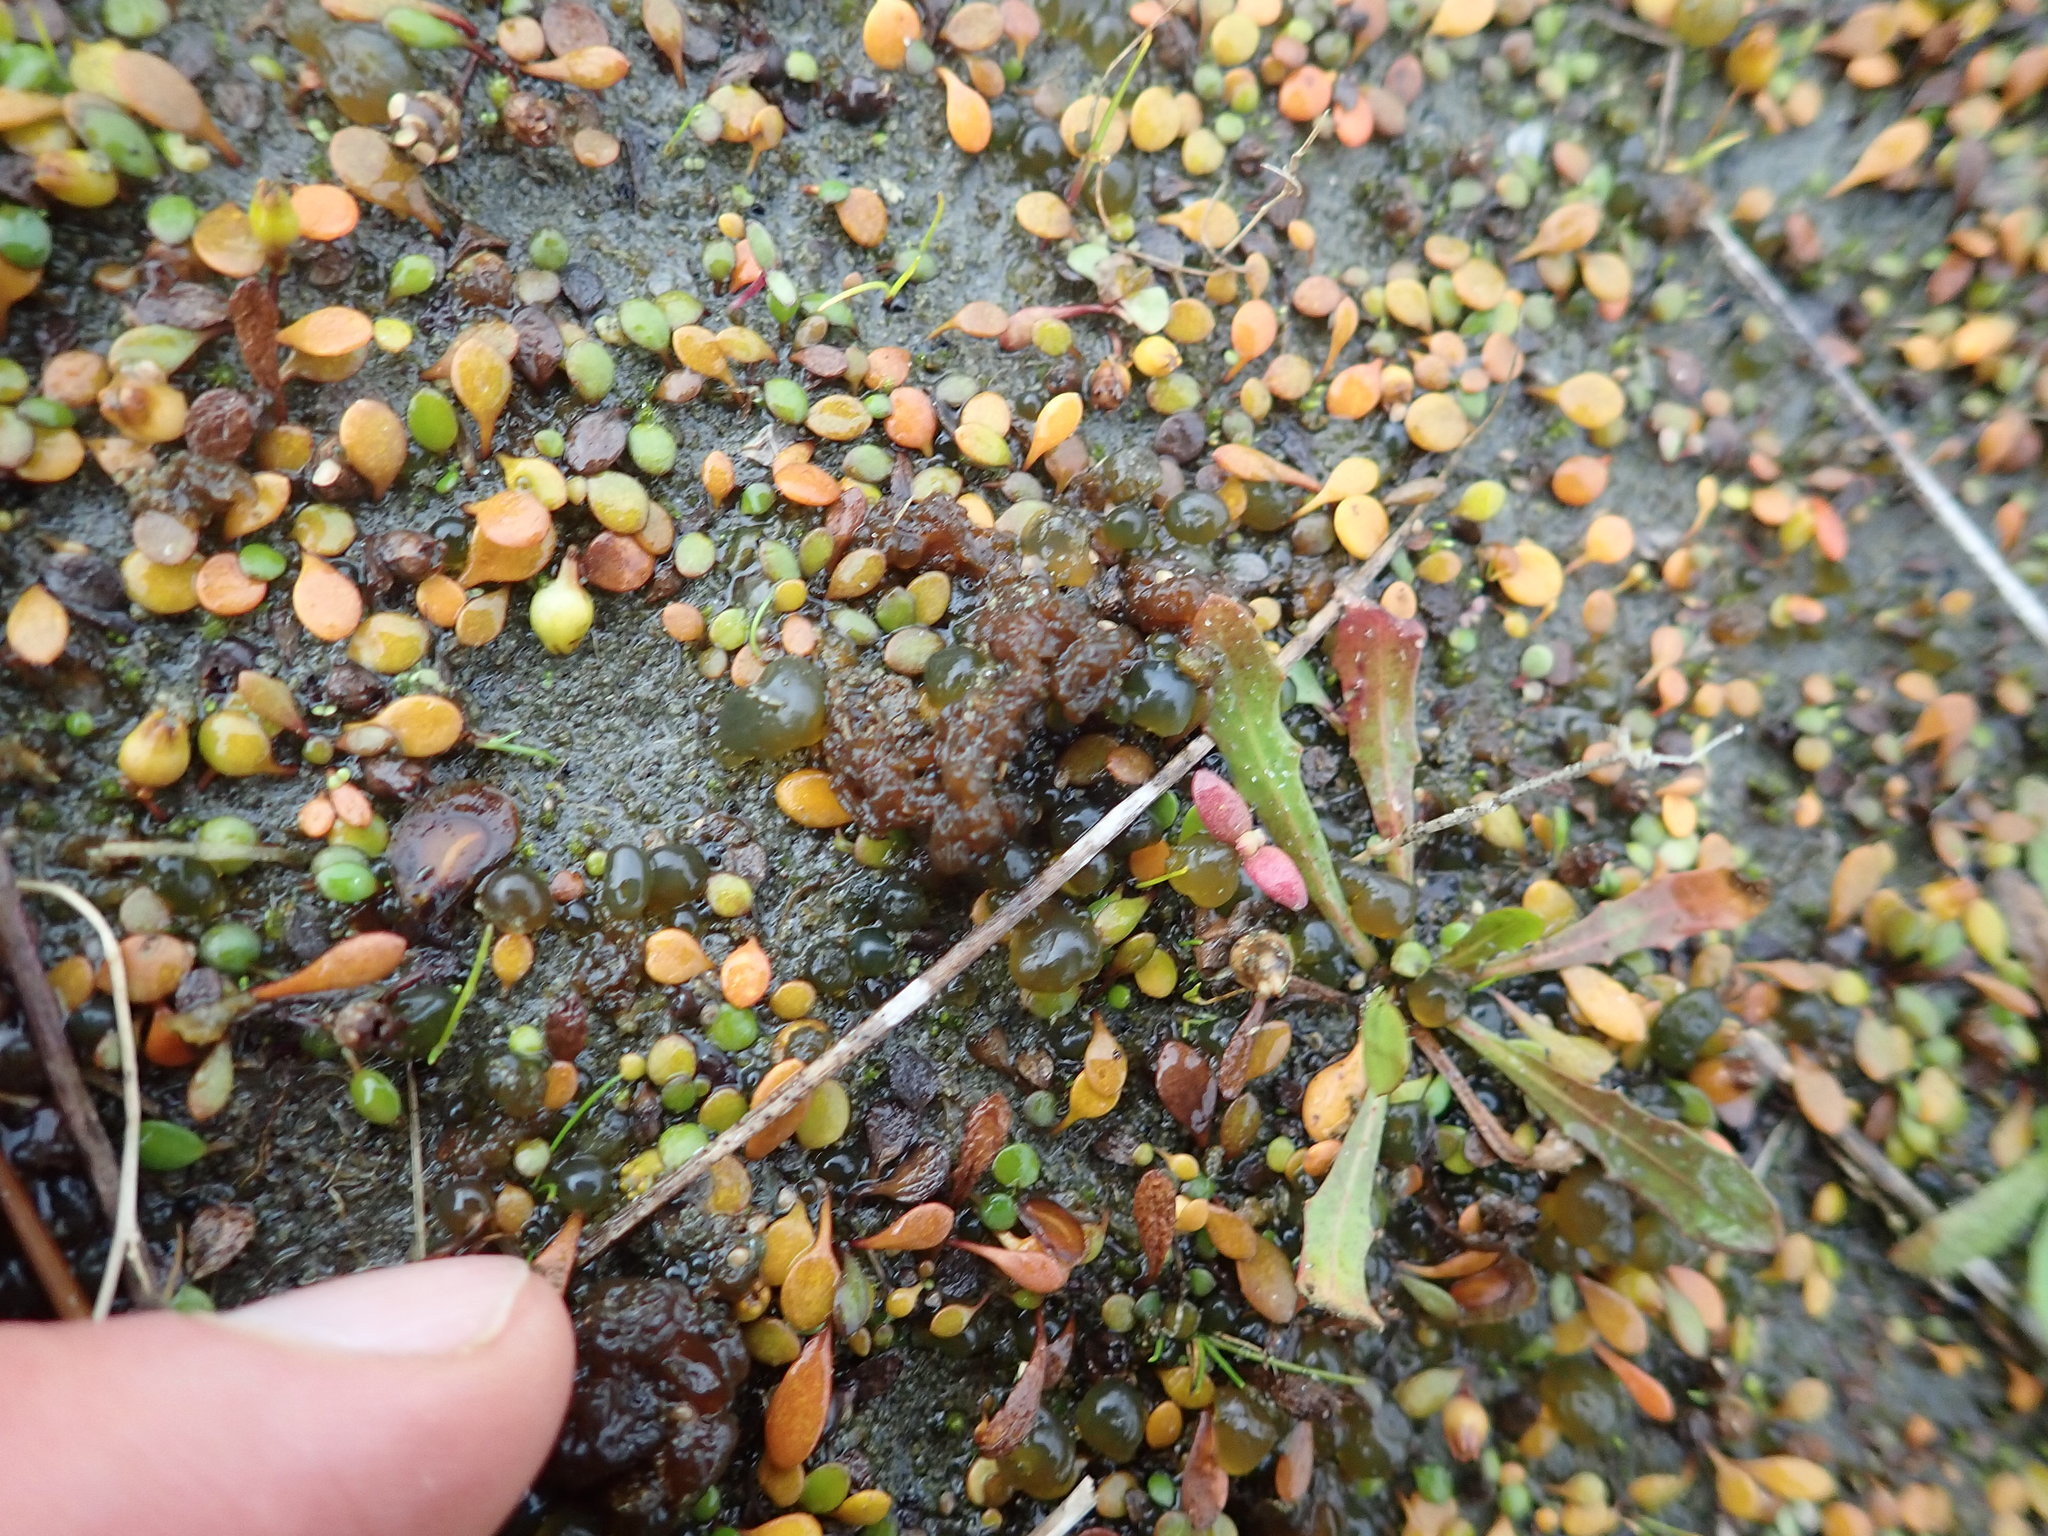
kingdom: Plantae
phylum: Tracheophyta
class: Magnoliopsida
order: Asterales
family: Goodeniaceae
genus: Goodenia
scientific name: Goodenia heenanii
